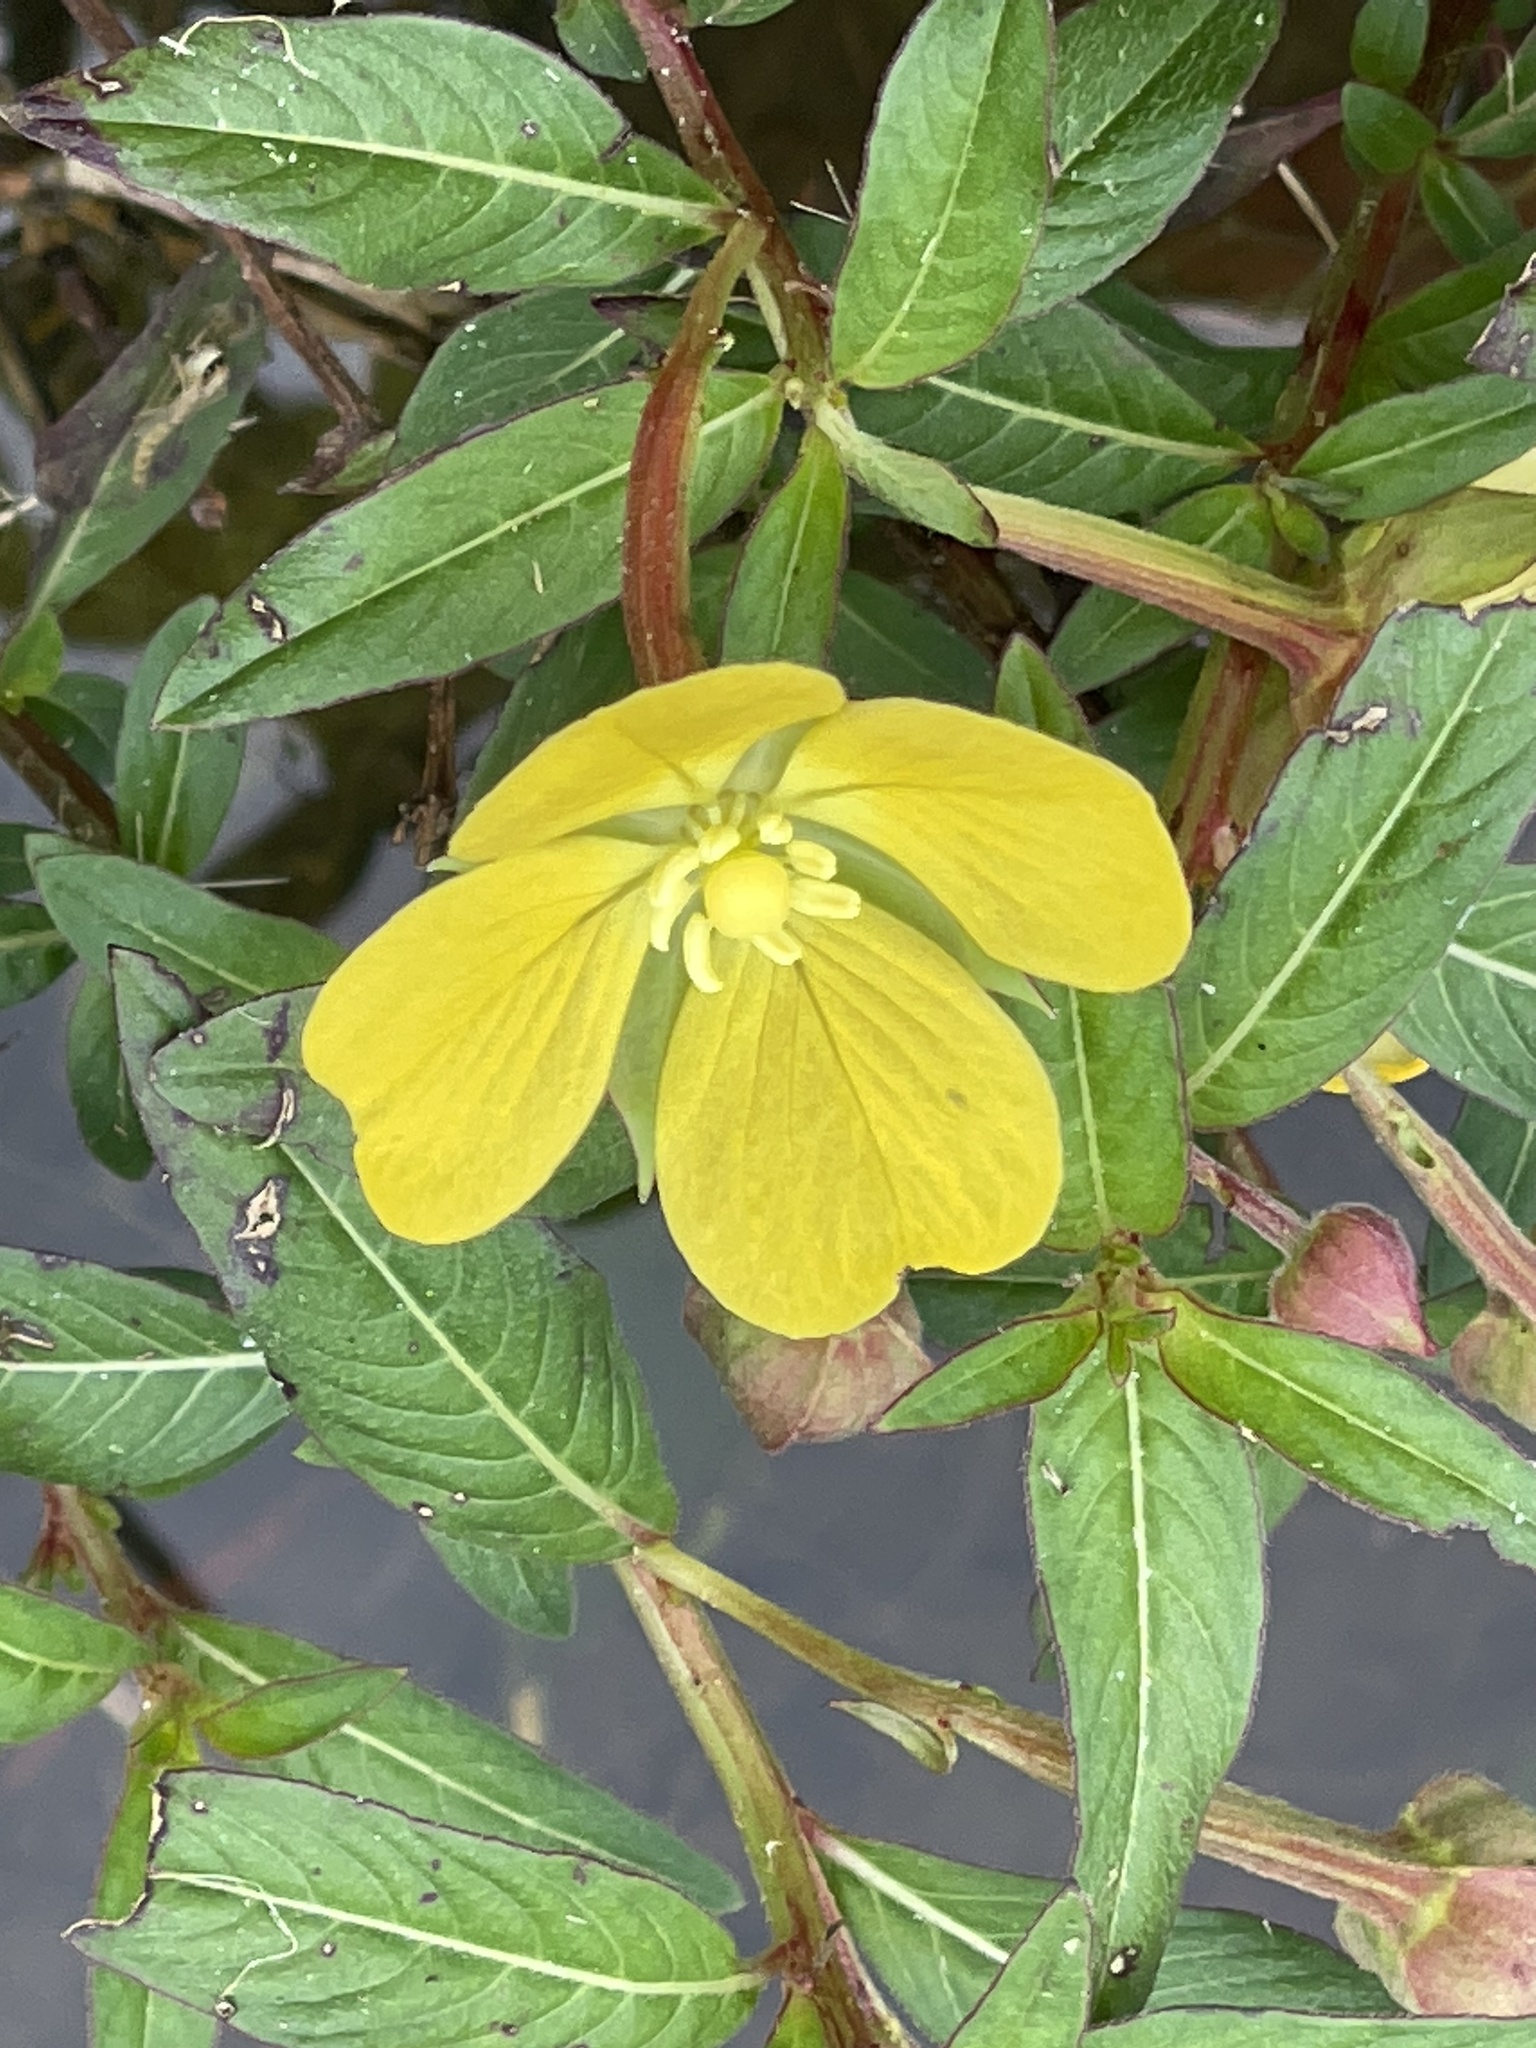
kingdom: Plantae
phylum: Tracheophyta
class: Magnoliopsida
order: Myrtales
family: Onagraceae
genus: Ludwigia
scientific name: Ludwigia octovalvis
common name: Water-primrose
